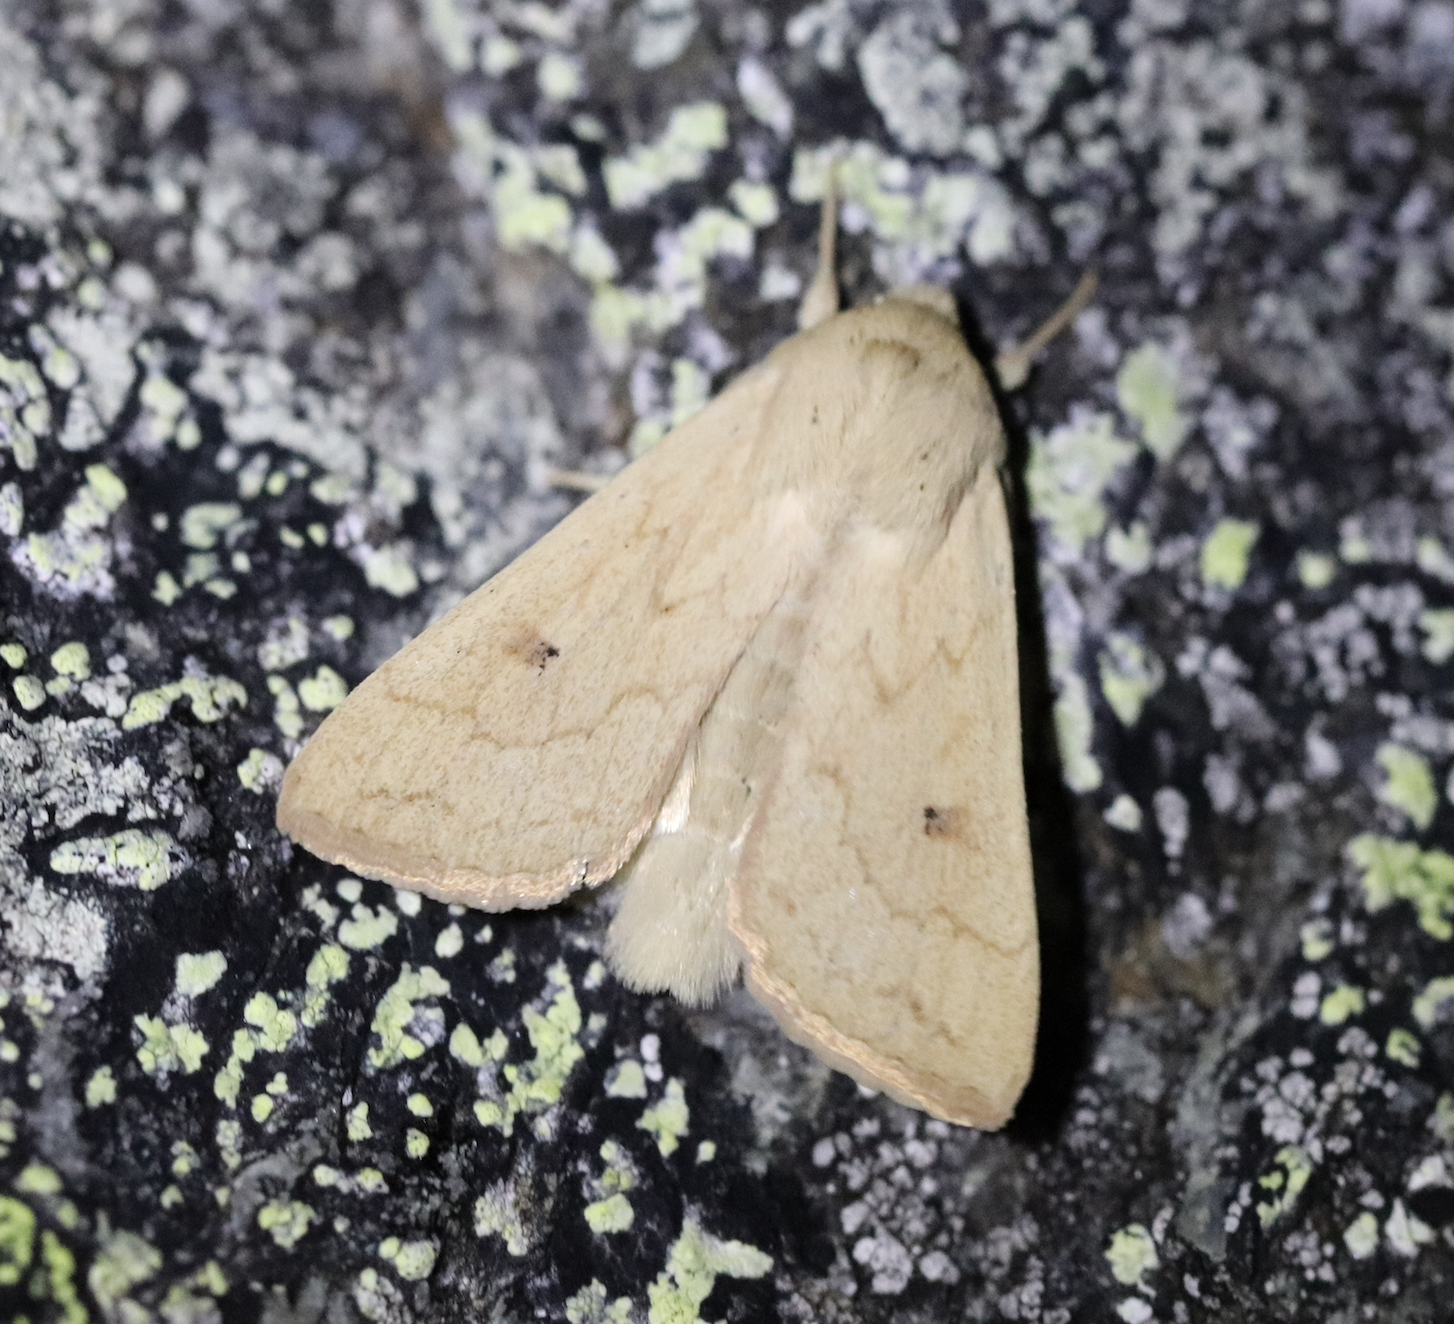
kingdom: Animalia
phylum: Arthropoda
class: Insecta
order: Lepidoptera
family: Noctuidae
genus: Mythimna
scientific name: Mythimna vitellina
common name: Delicate
